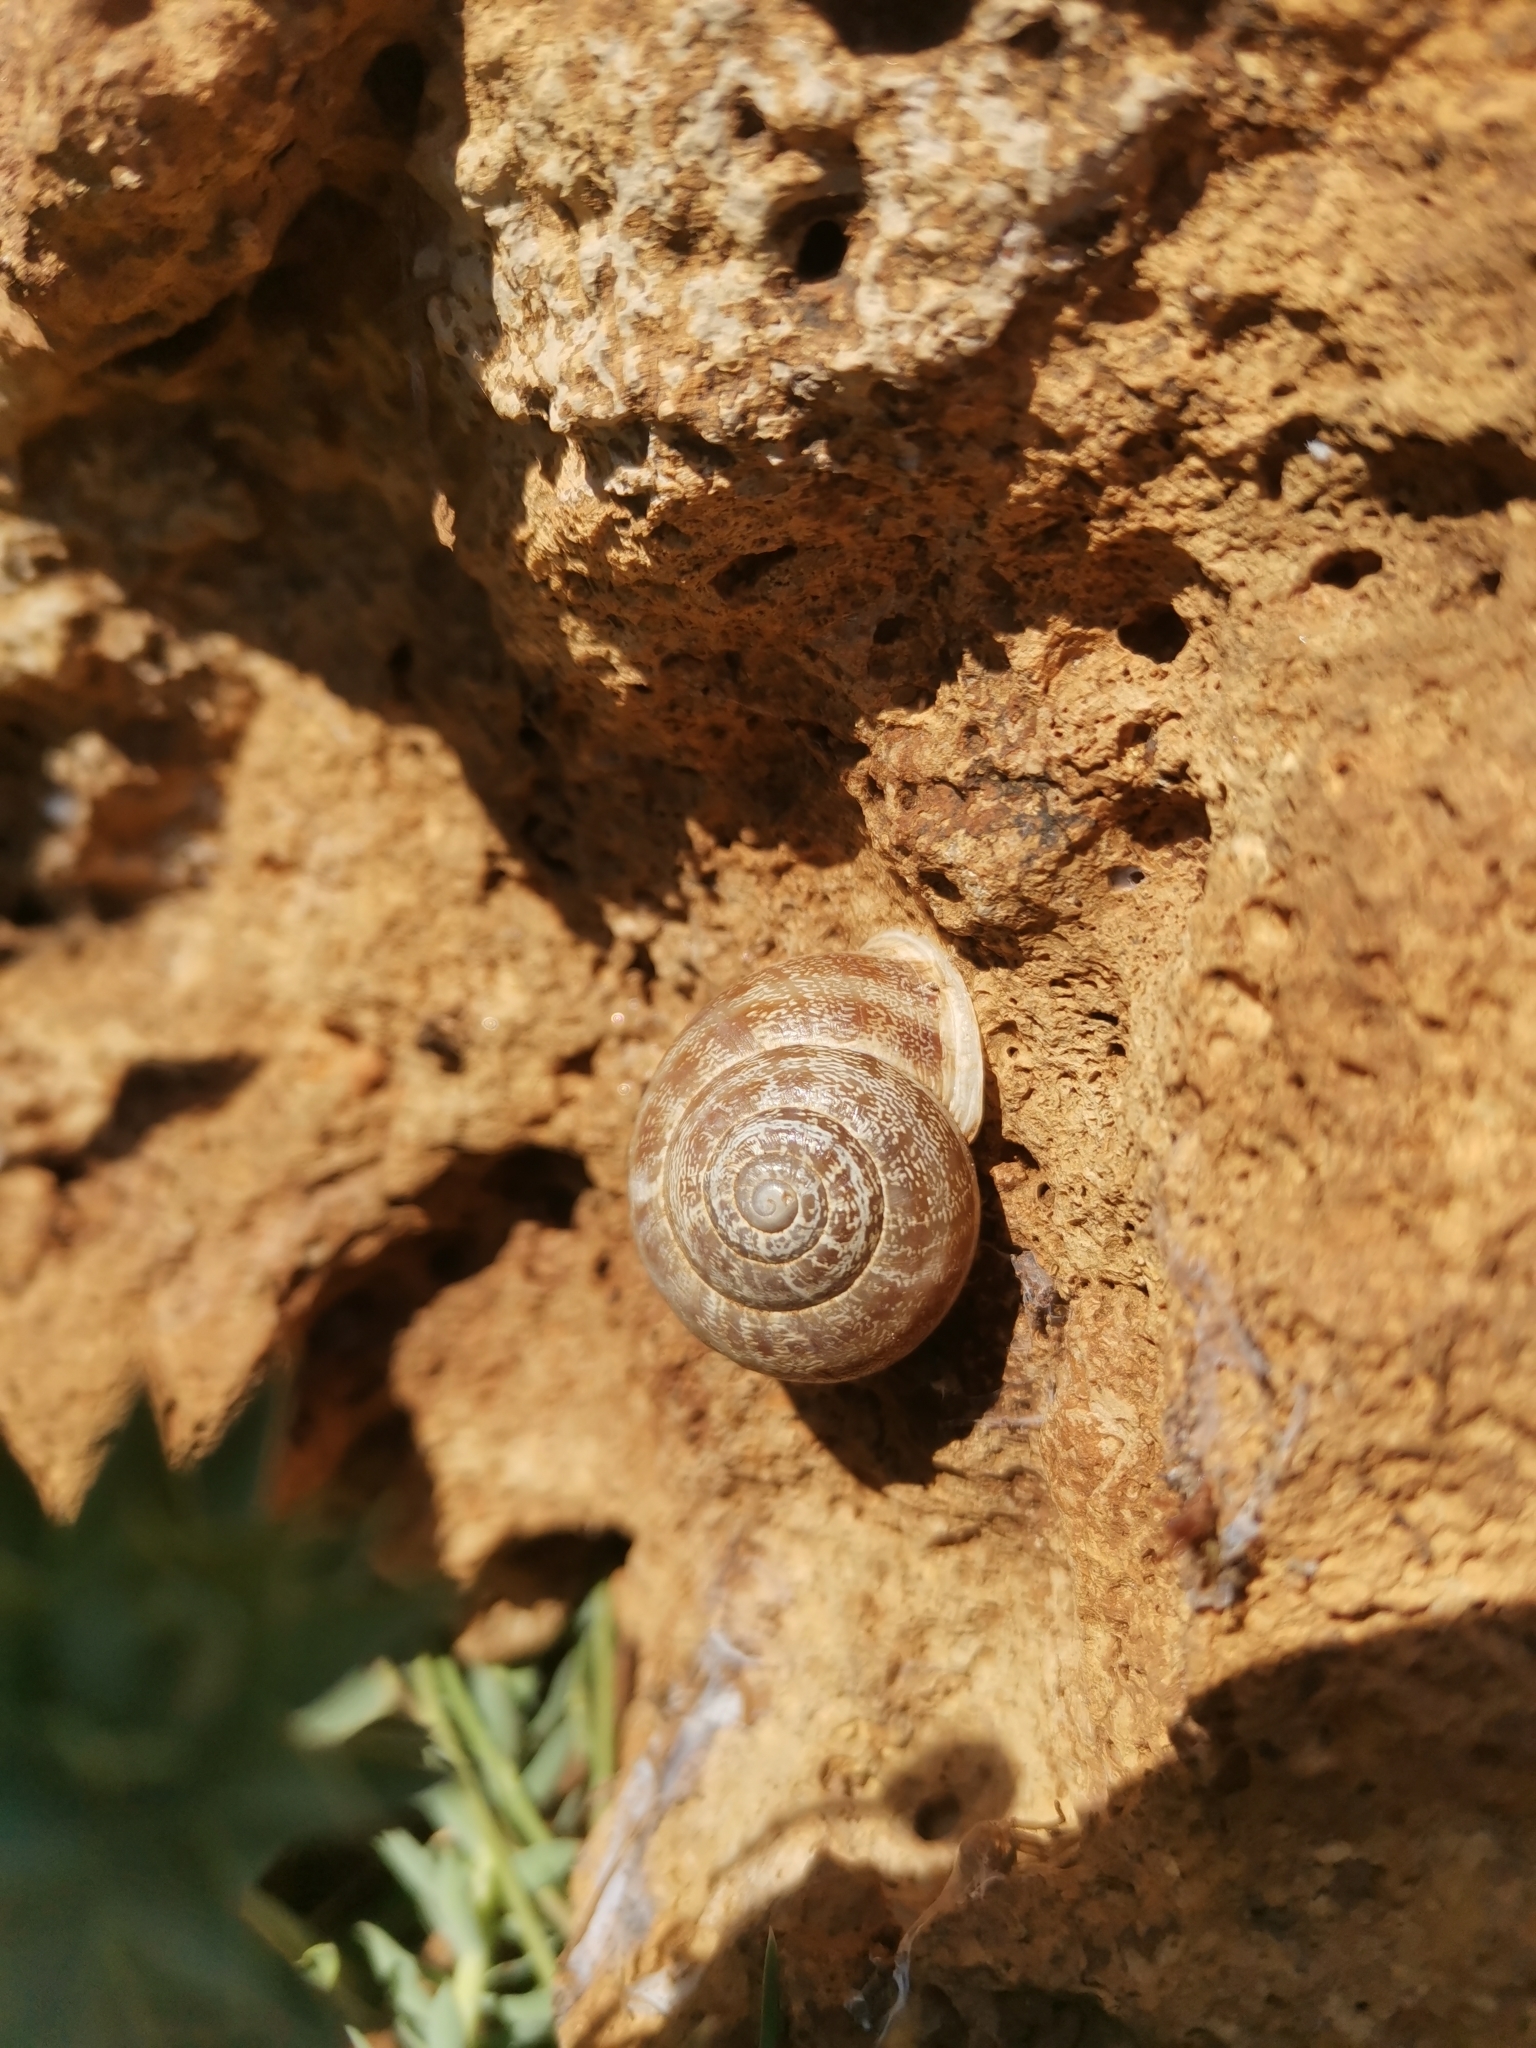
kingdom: Animalia
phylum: Mollusca
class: Gastropoda
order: Stylommatophora
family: Helicidae
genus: Eobania
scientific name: Eobania vermiculata
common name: Chocolateband snail
